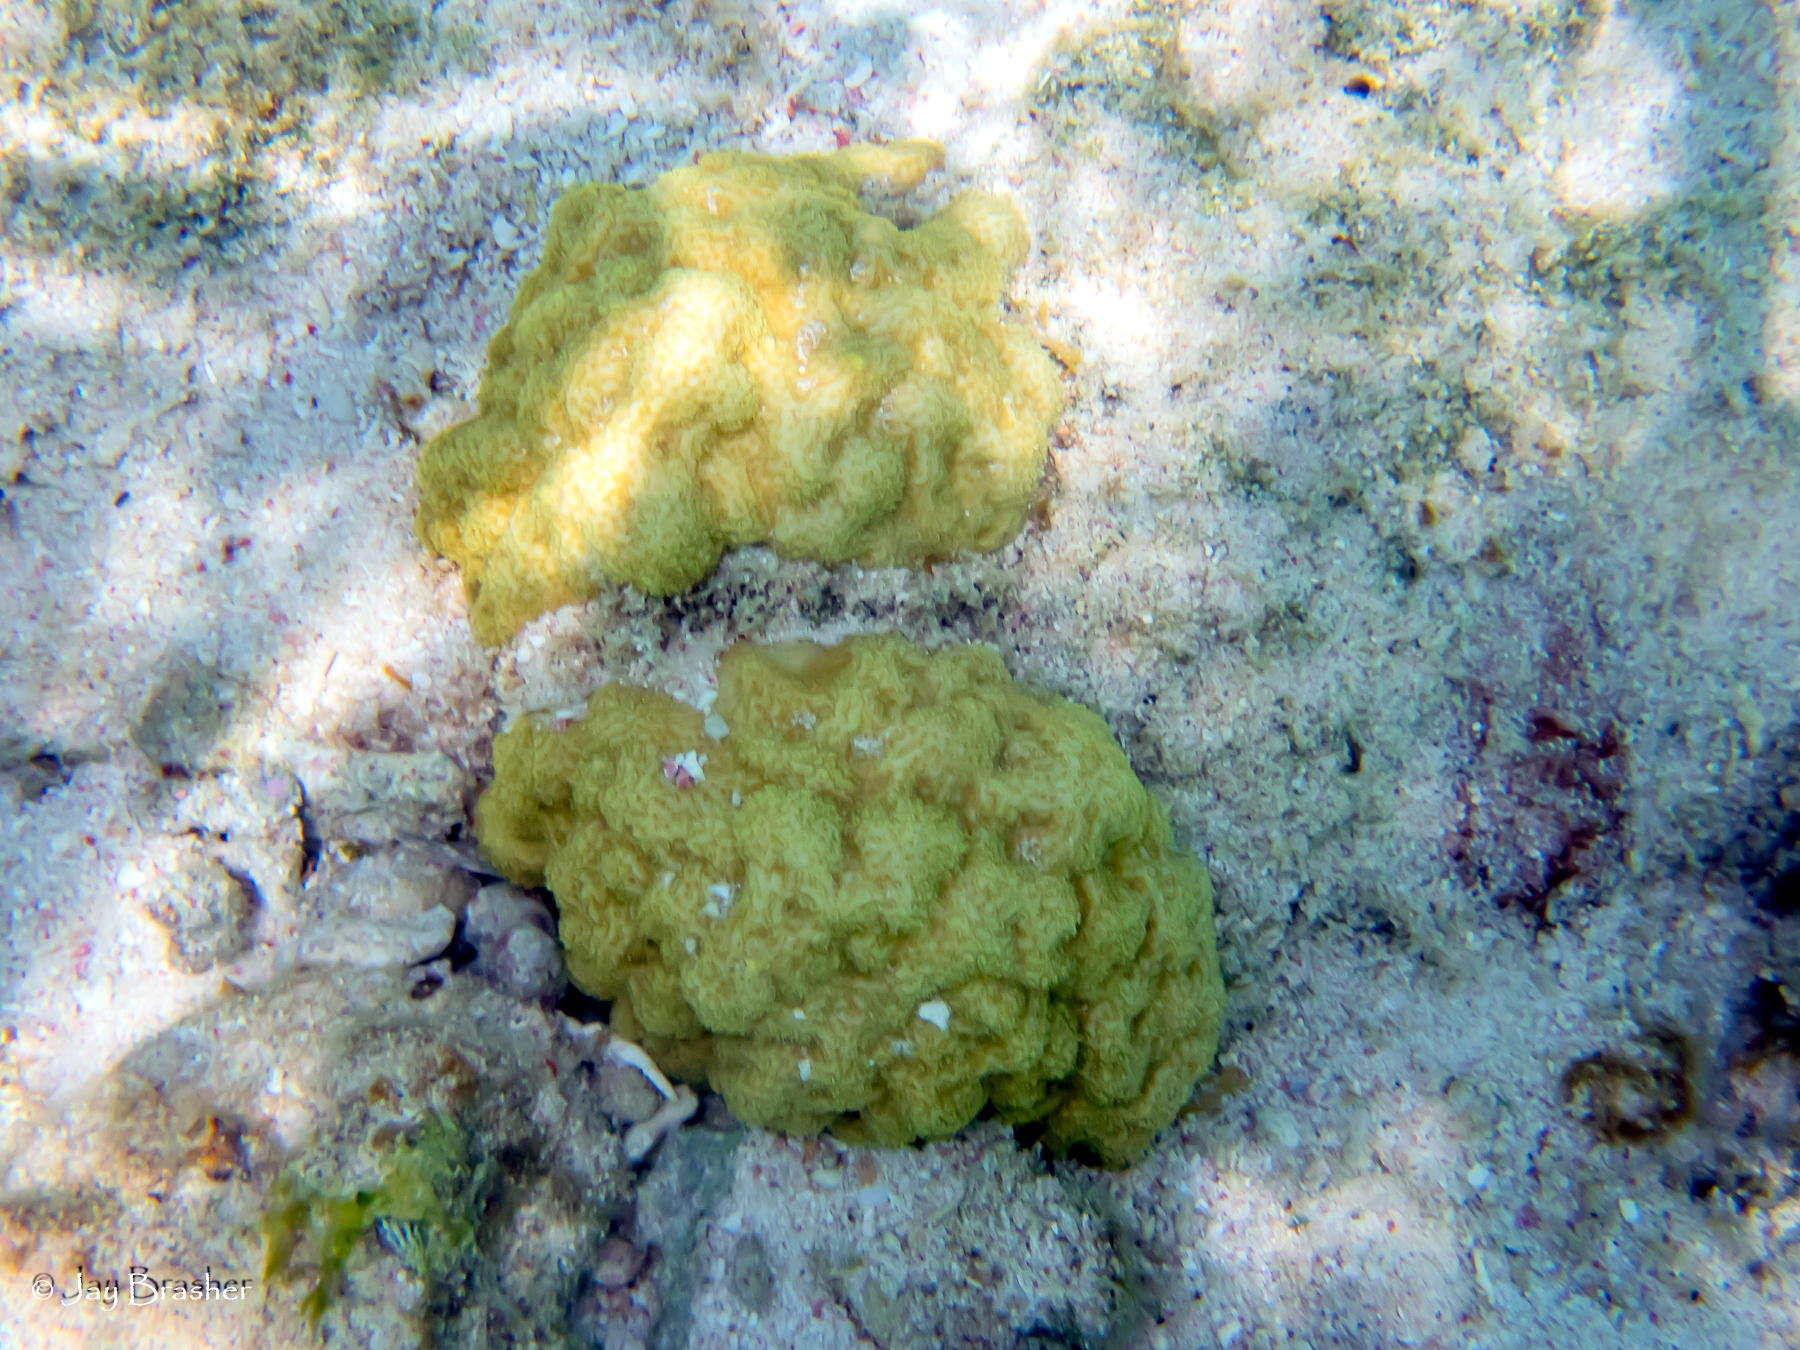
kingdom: Animalia
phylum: Cnidaria
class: Anthozoa
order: Scleractinia
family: Poritidae
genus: Porites
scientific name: Porites astreoides
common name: Mustard hill coral
